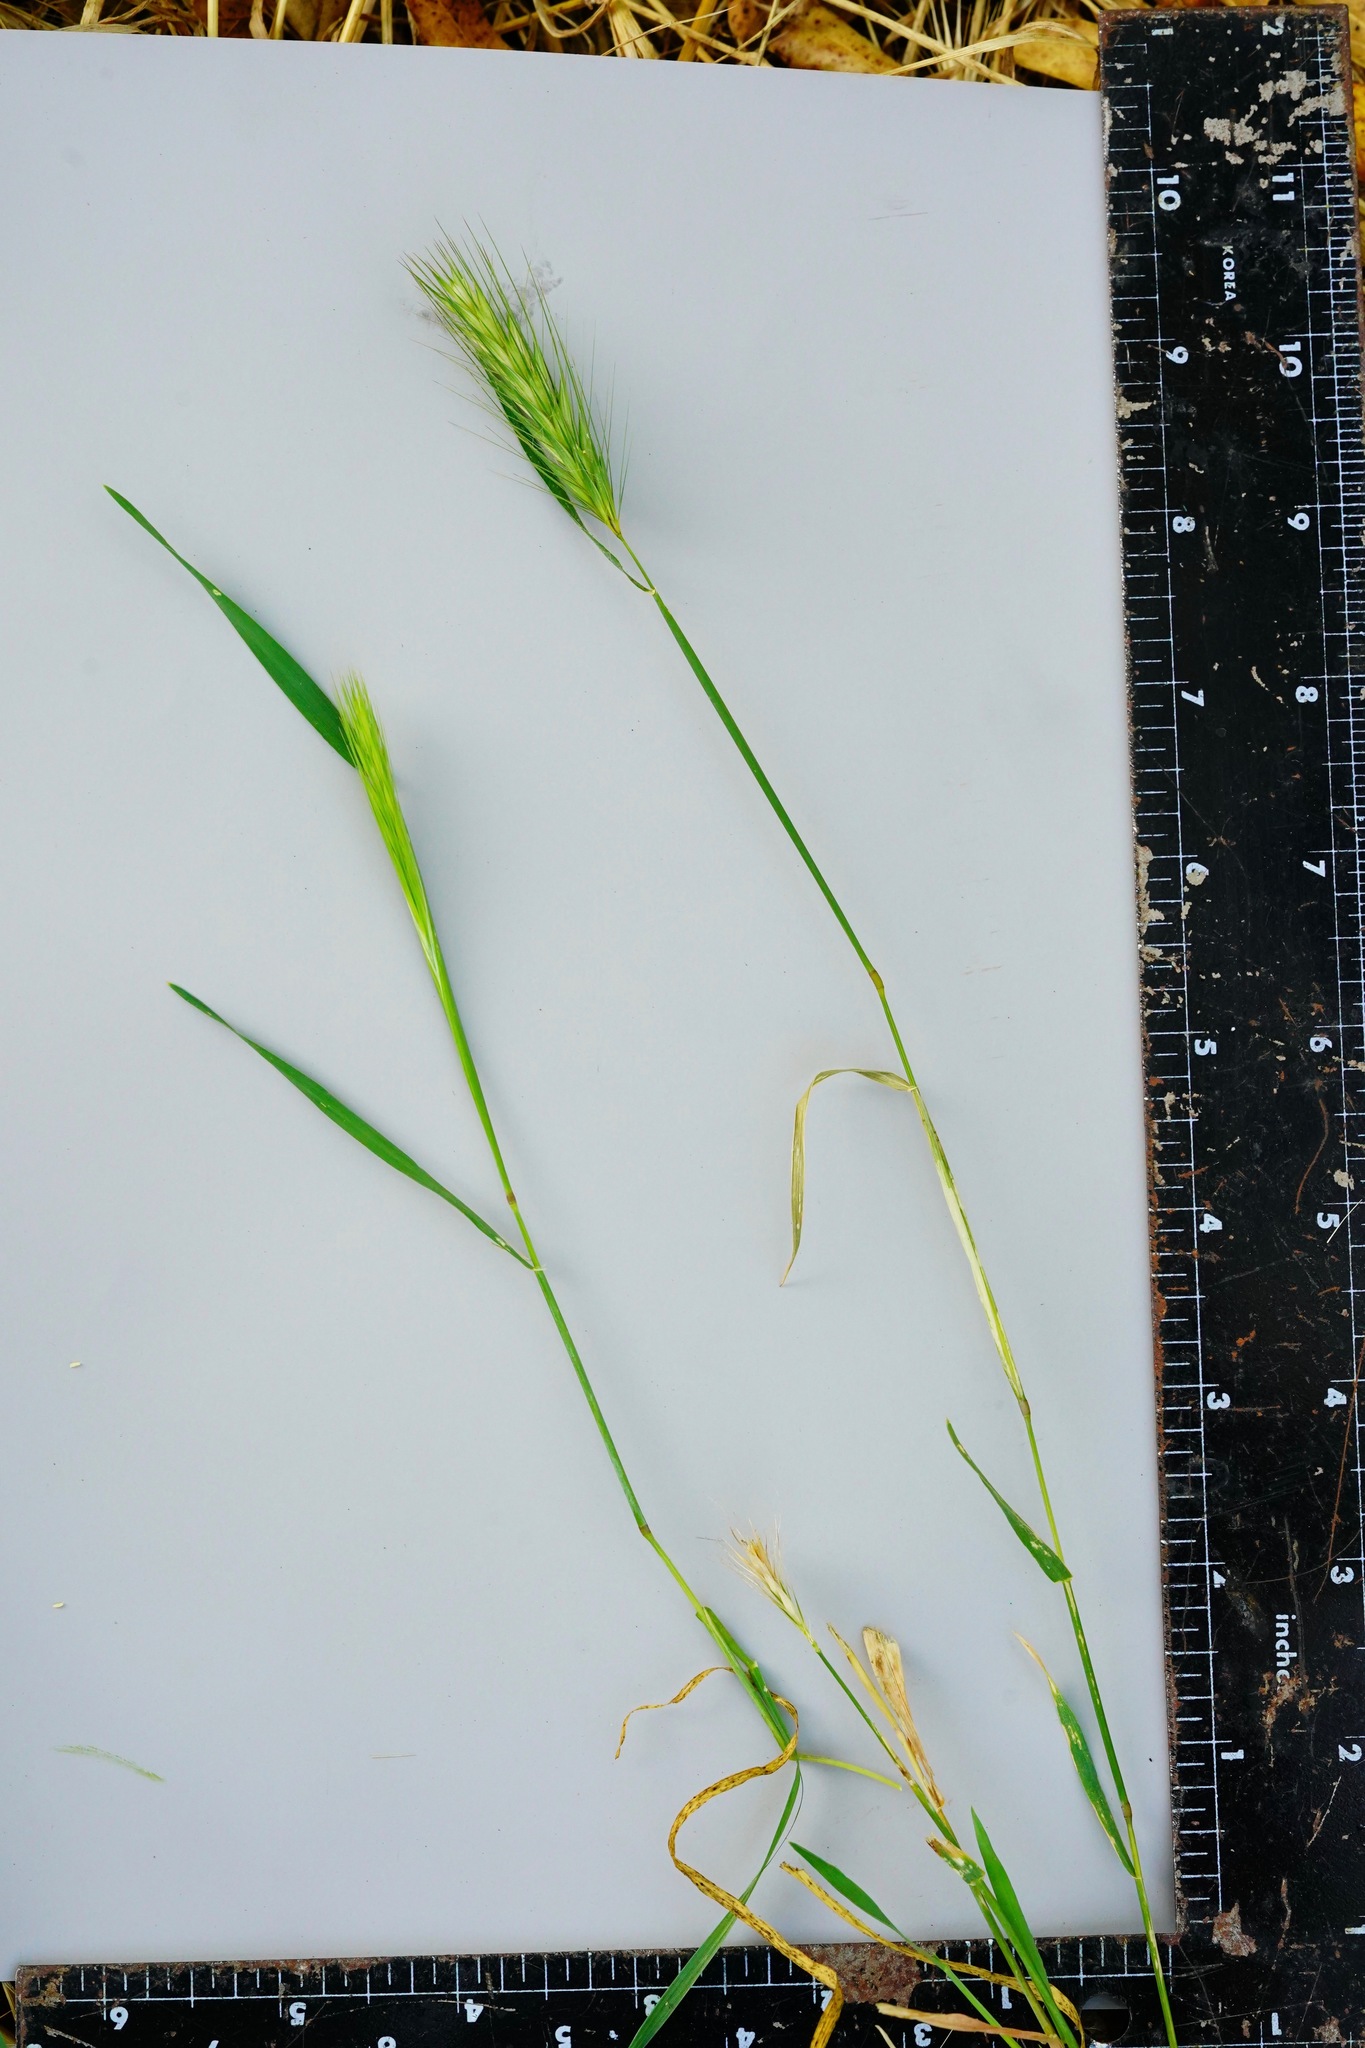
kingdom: Plantae
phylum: Tracheophyta
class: Liliopsida
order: Poales
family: Poaceae
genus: Hordeum
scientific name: Hordeum pusillum
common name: Little barley
